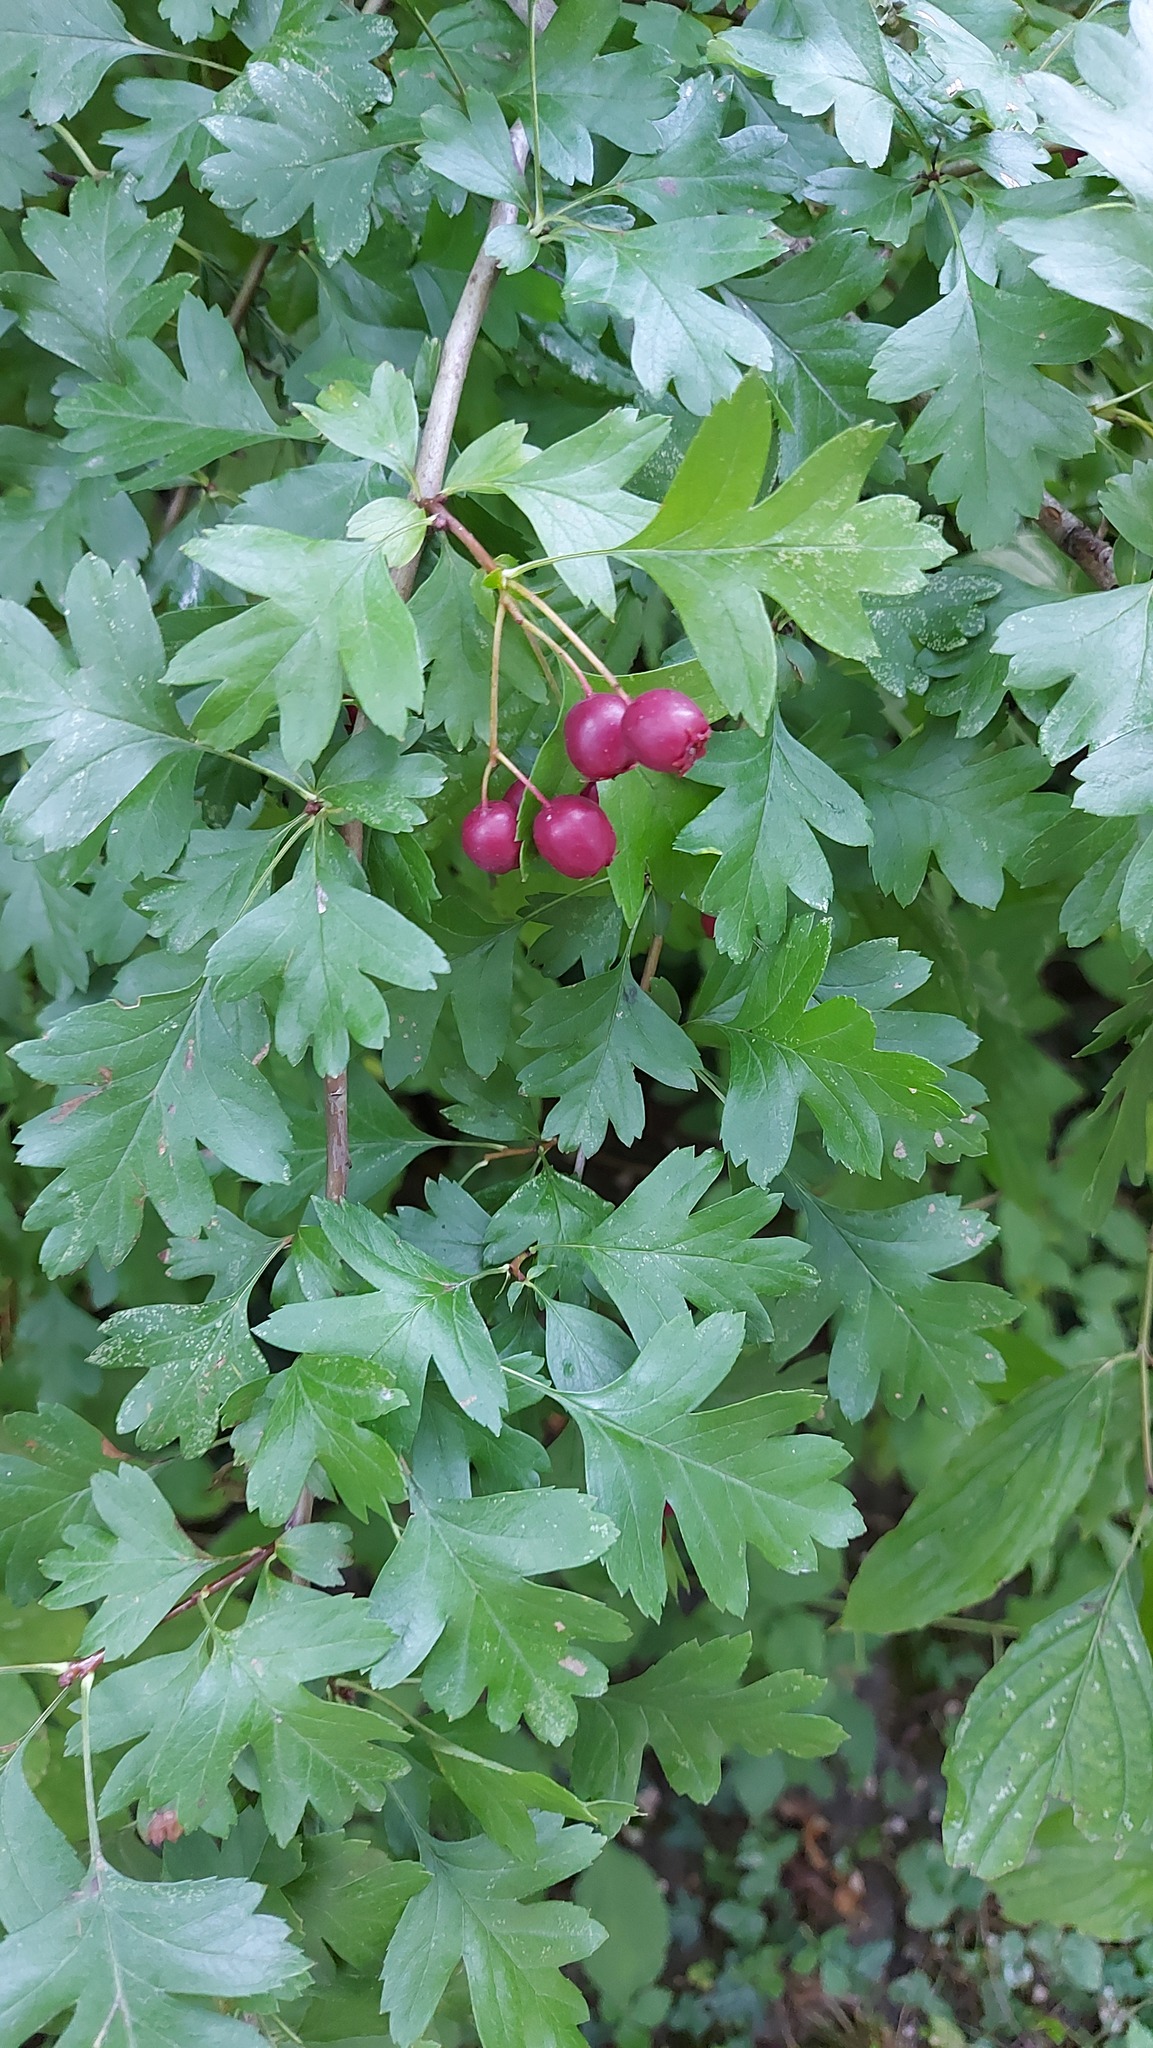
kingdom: Plantae
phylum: Tracheophyta
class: Magnoliopsida
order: Rosales
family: Rosaceae
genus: Crataegus
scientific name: Crataegus monogyna
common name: Hawthorn
